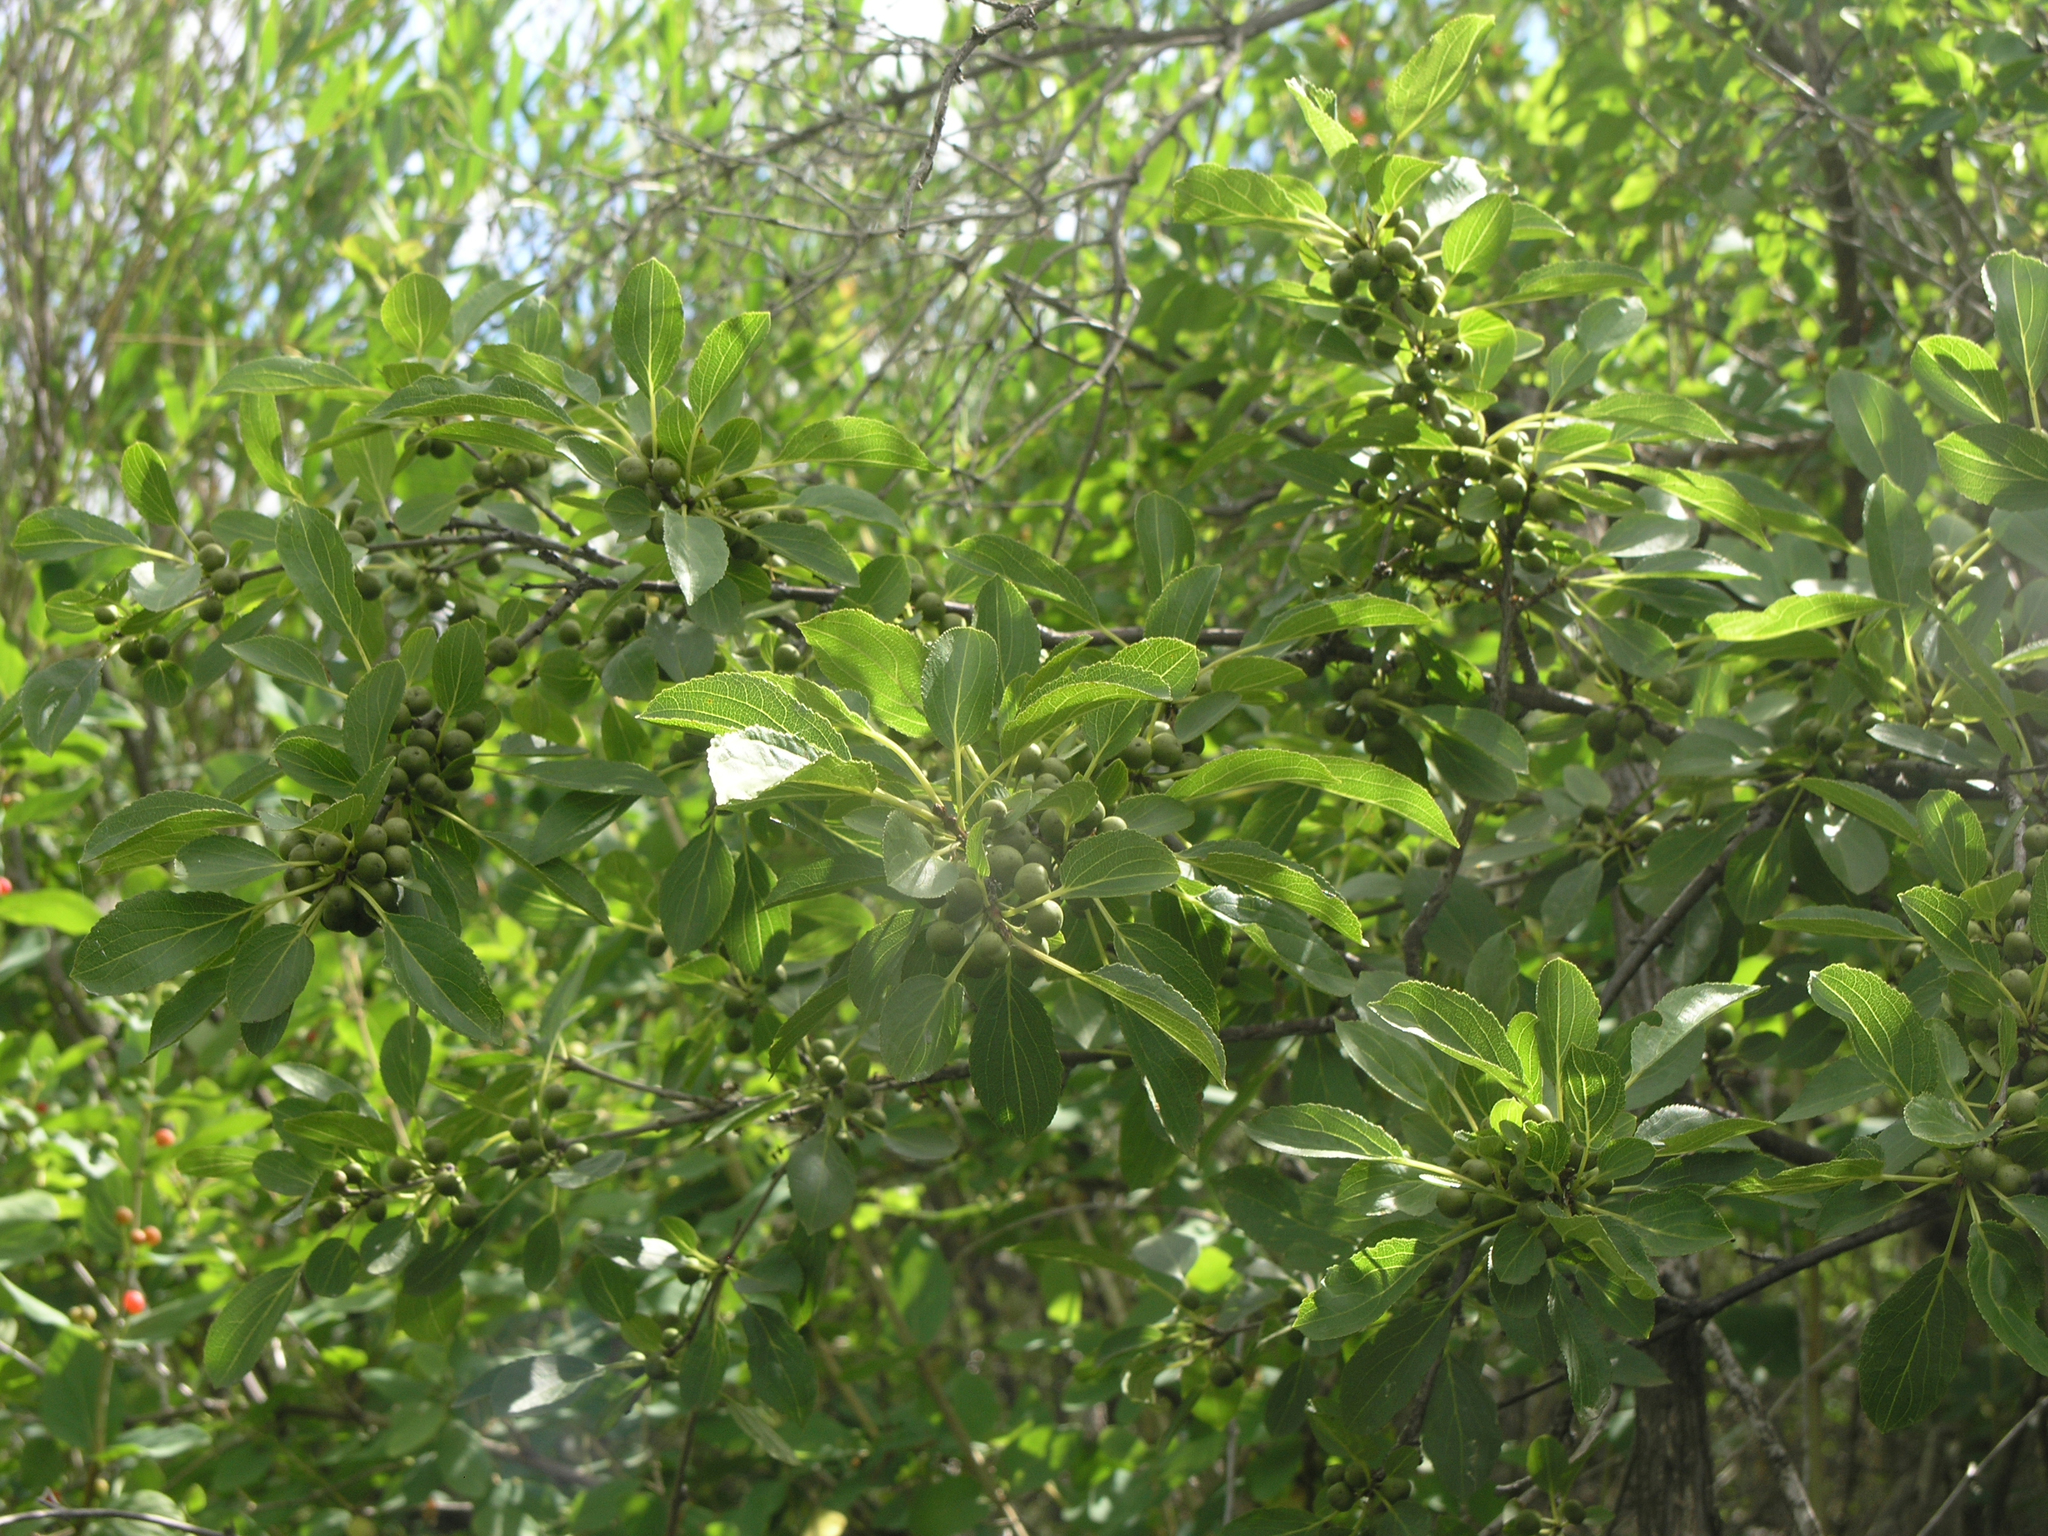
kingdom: Plantae
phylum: Tracheophyta
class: Magnoliopsida
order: Rosales
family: Rhamnaceae
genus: Rhamnus
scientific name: Rhamnus cathartica
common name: Common buckthorn
